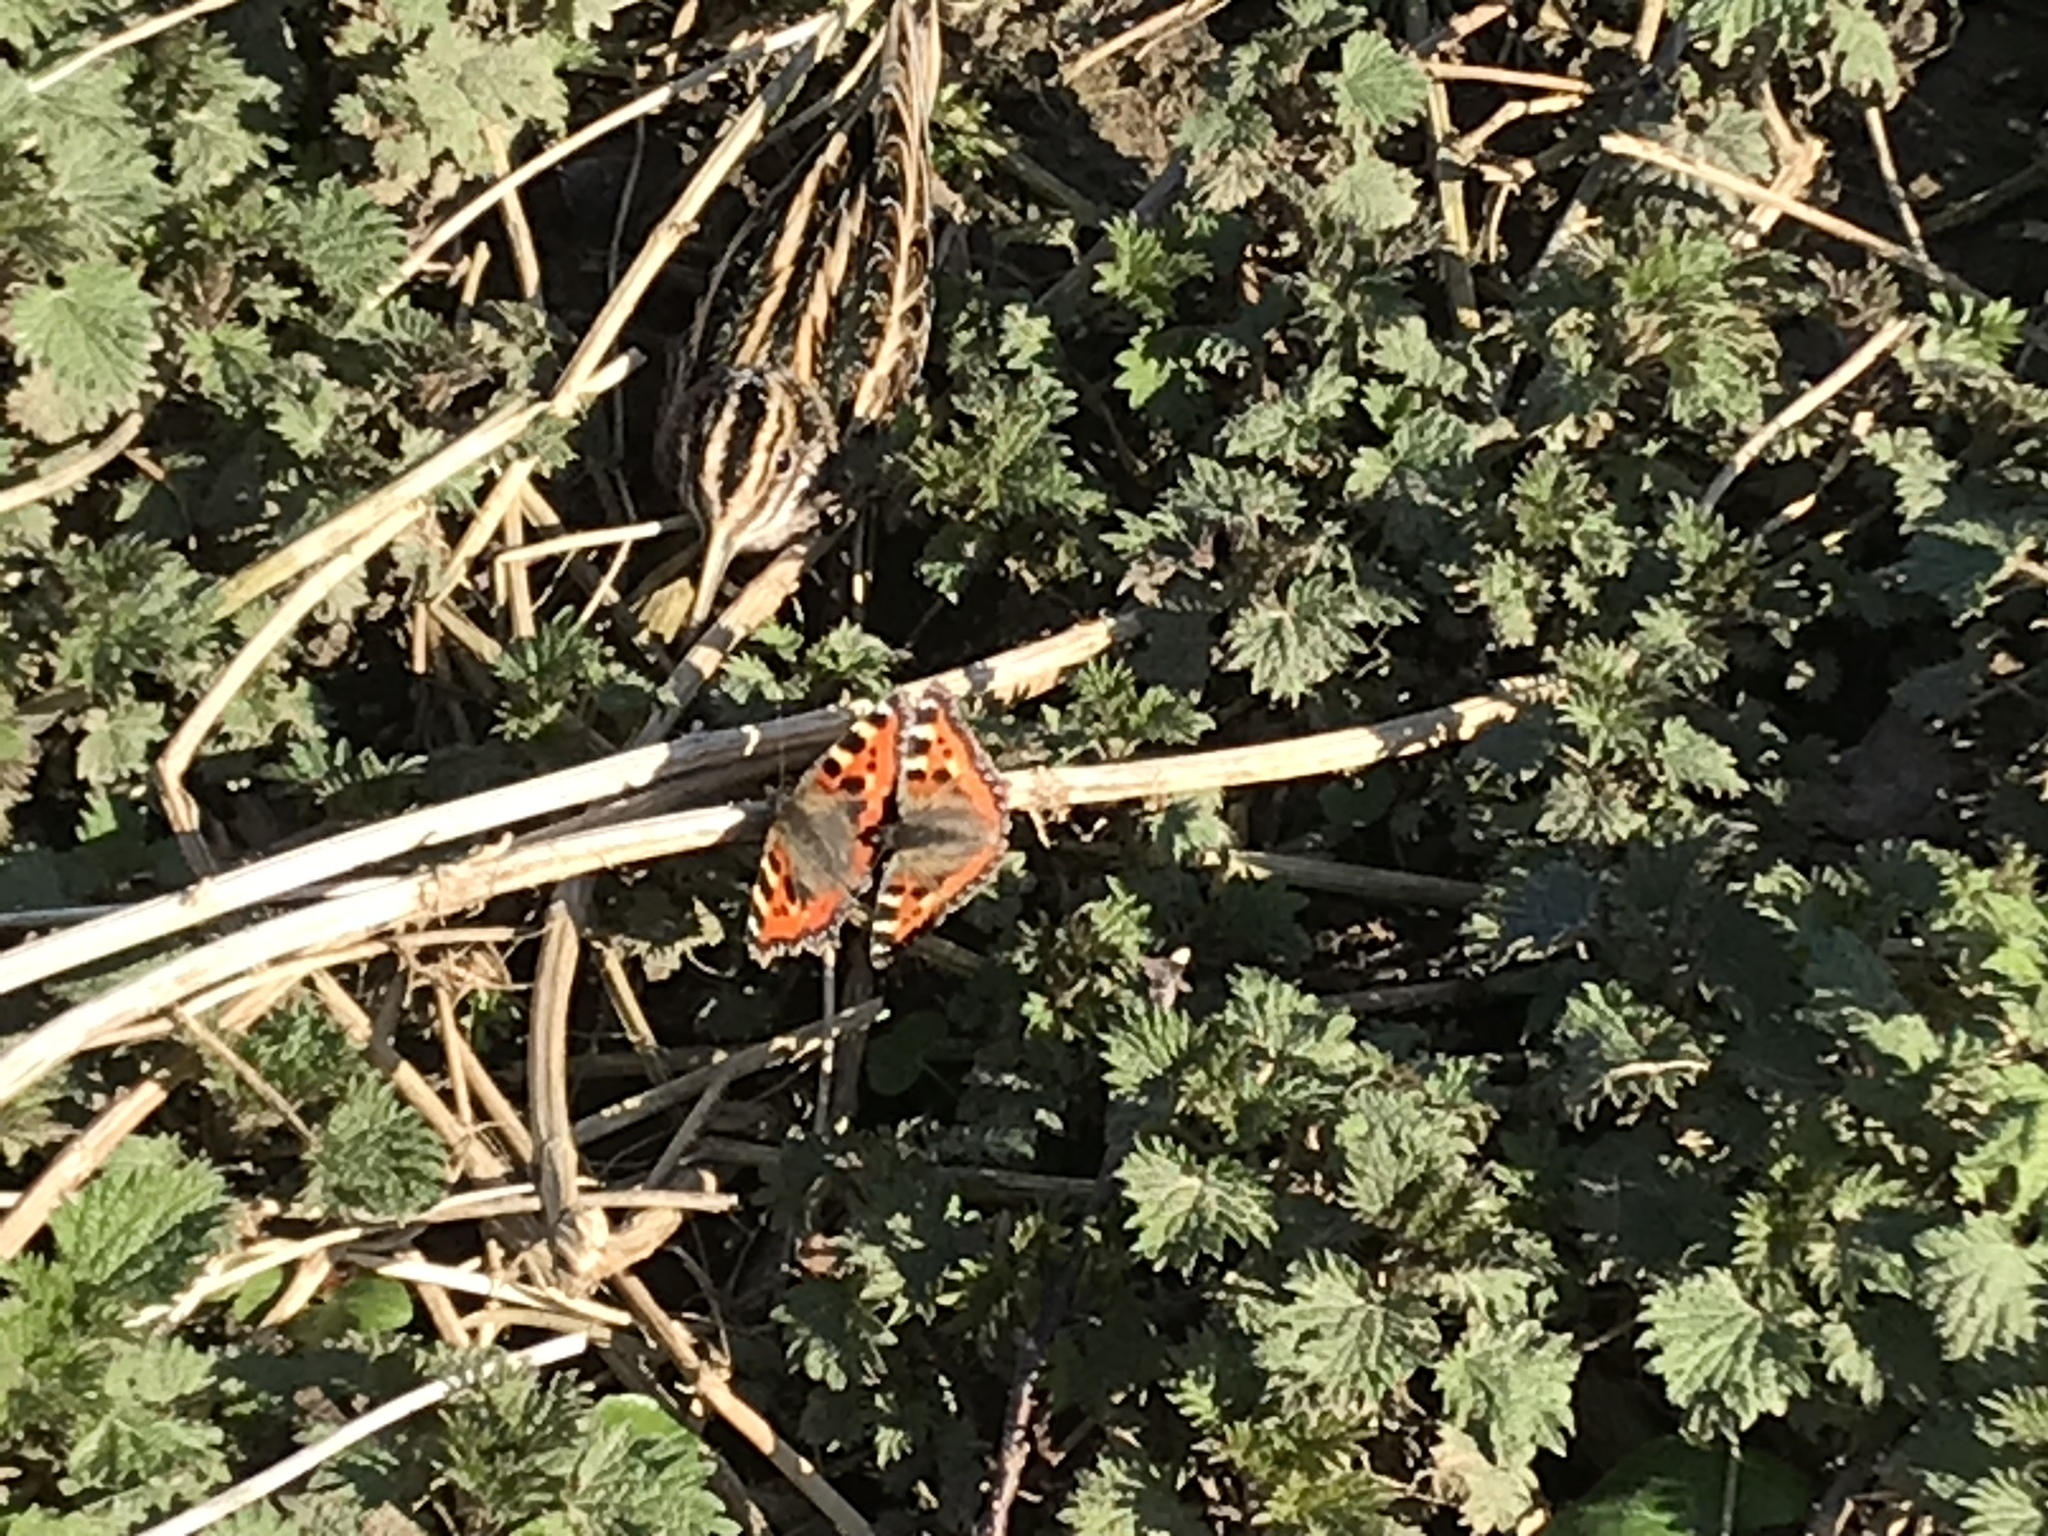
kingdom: Animalia
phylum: Chordata
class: Aves
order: Charadriiformes
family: Scolopacidae
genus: Lymnocryptes
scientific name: Lymnocryptes minimus
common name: Jack snipe
